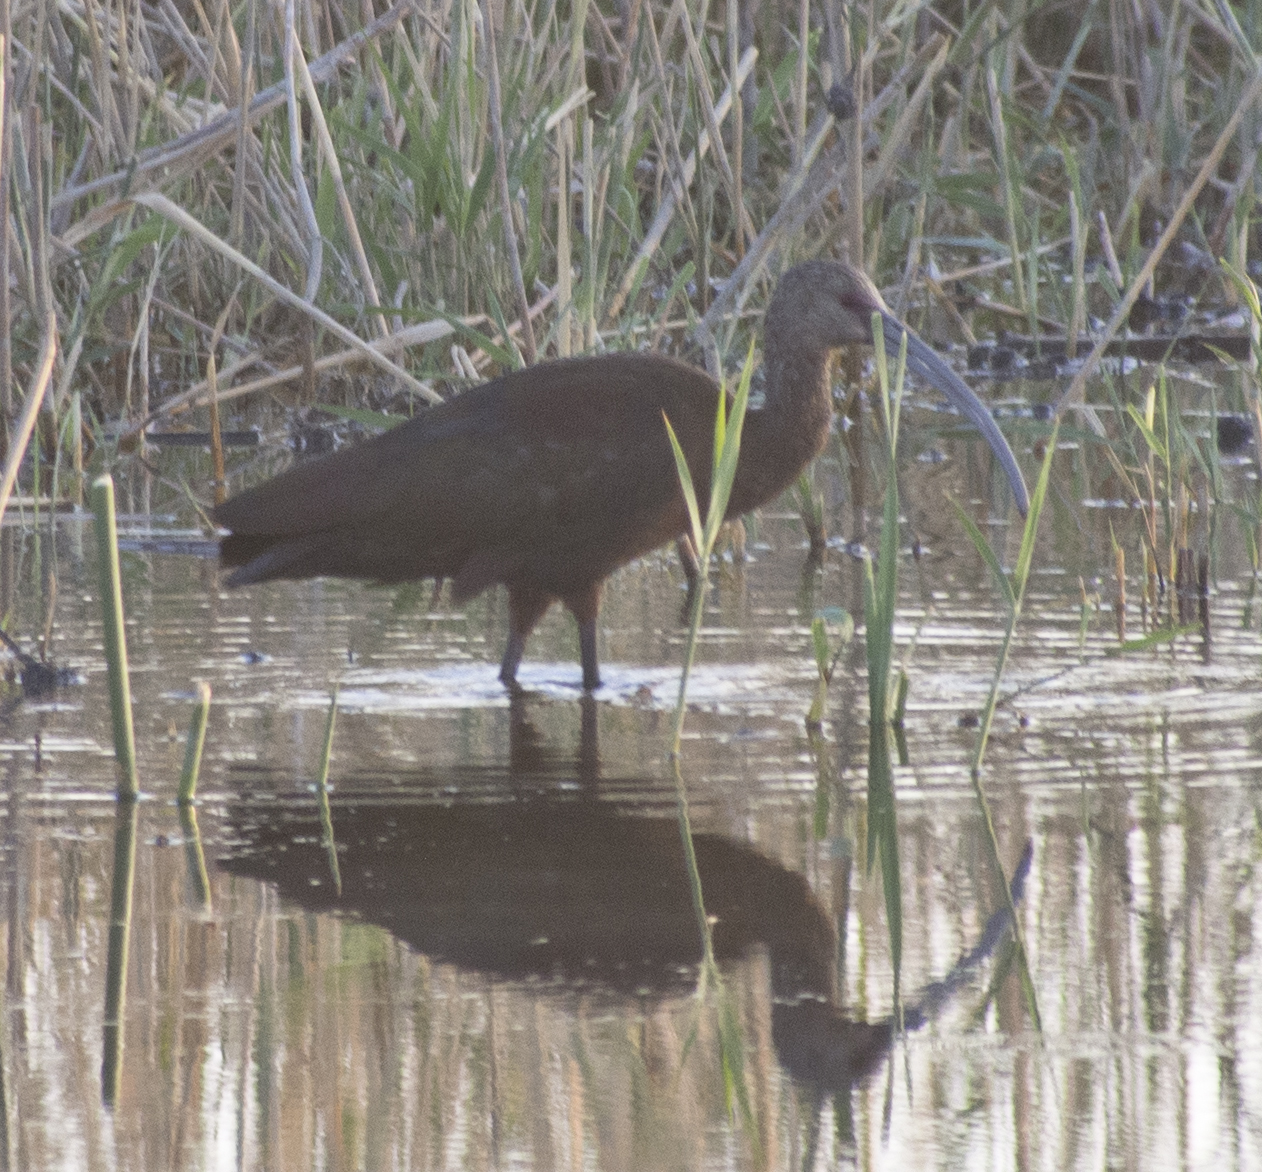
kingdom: Animalia
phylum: Chordata
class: Aves
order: Pelecaniformes
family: Threskiornithidae
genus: Plegadis
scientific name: Plegadis chihi
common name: White-faced ibis
